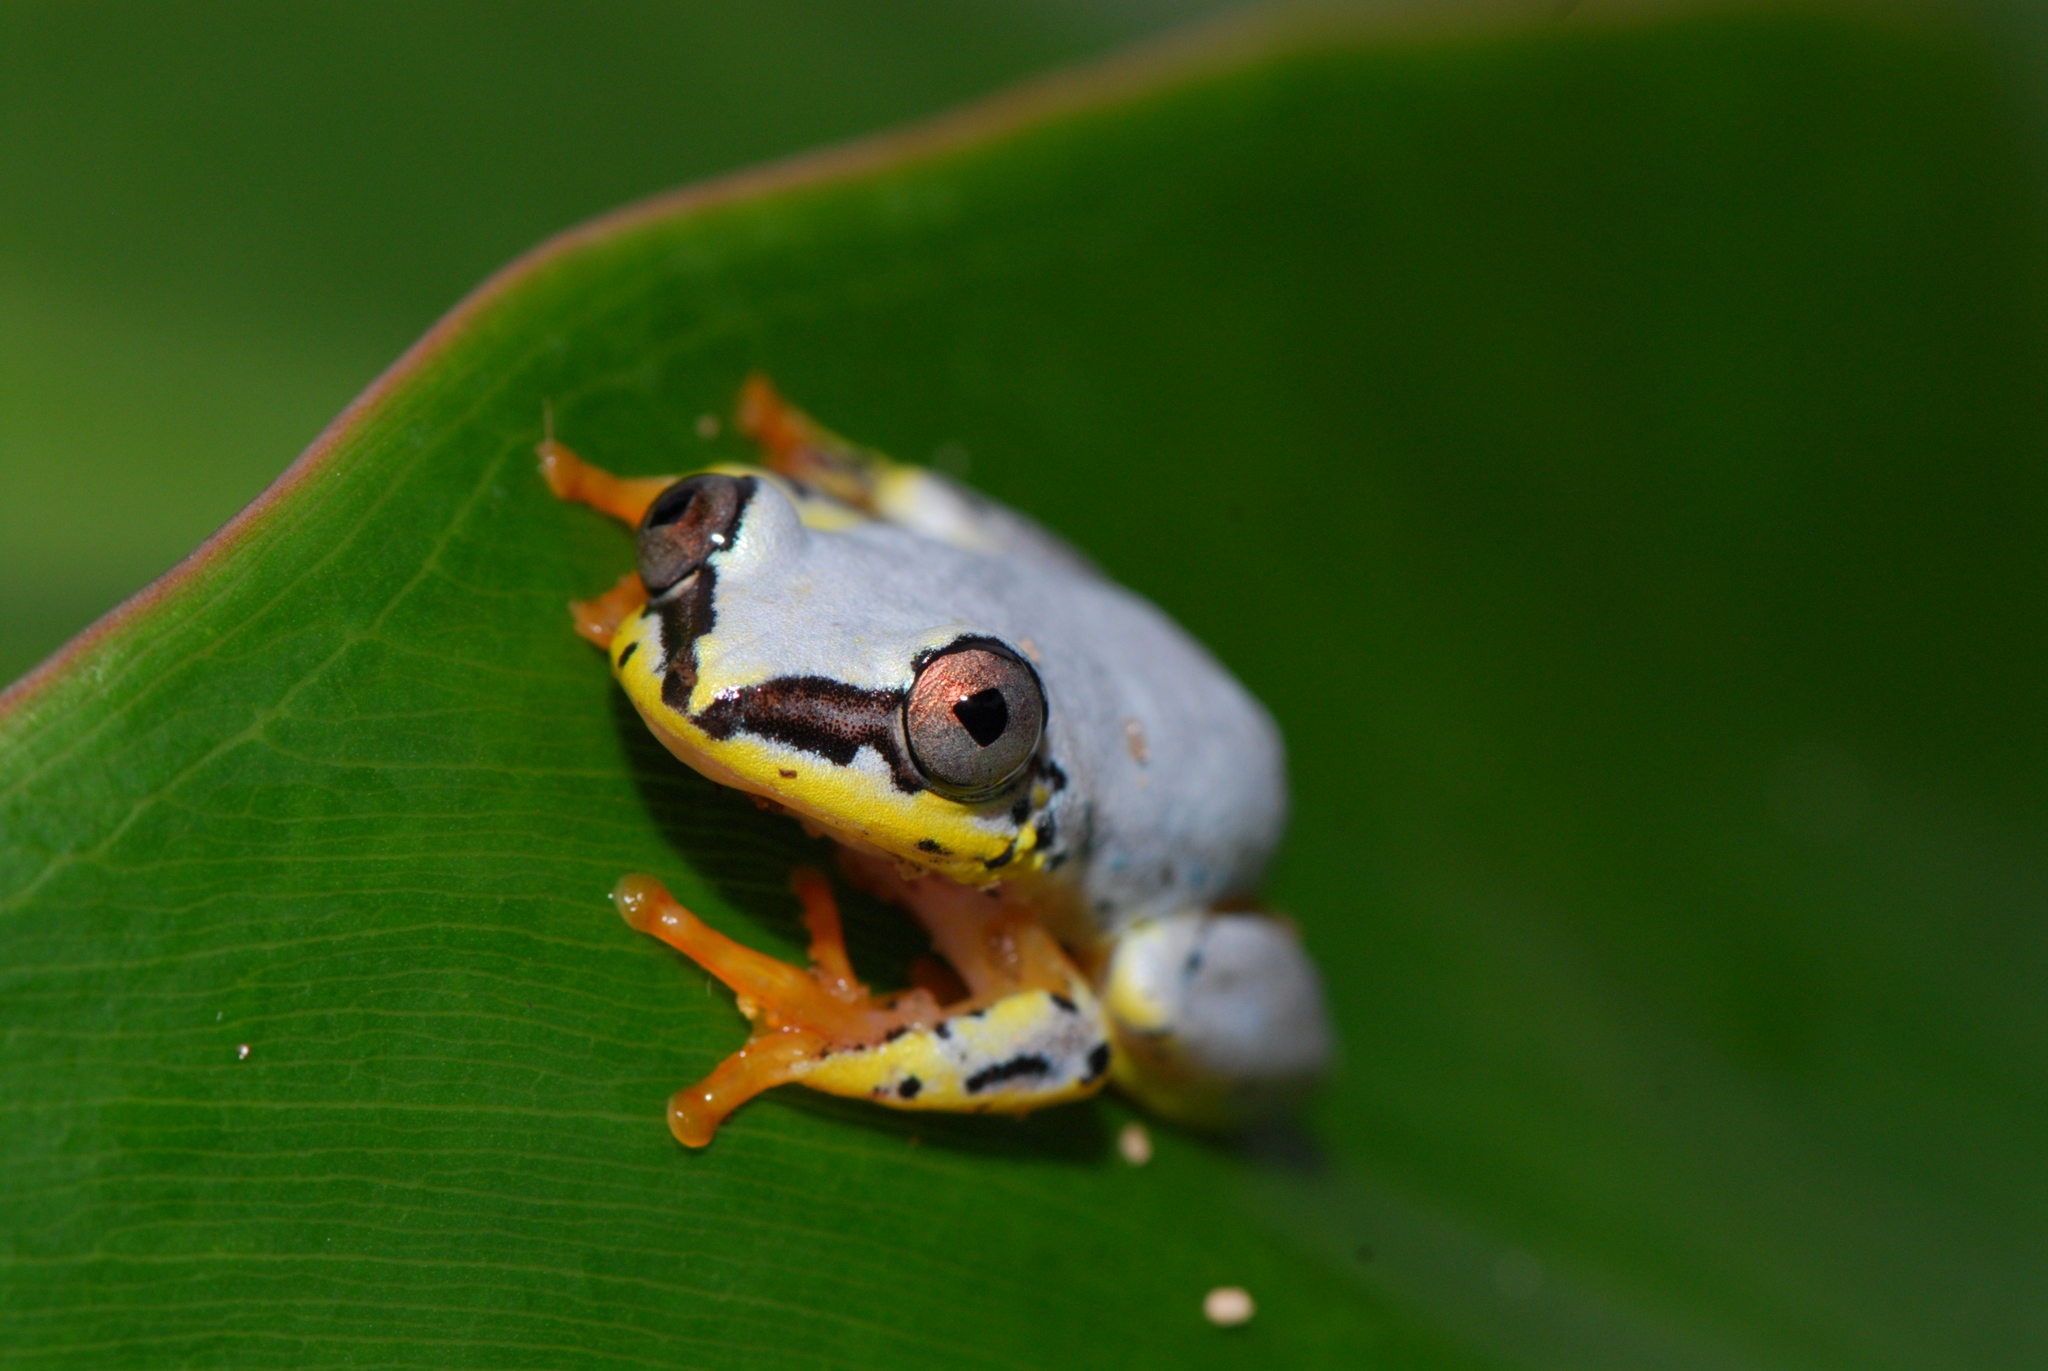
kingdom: Animalia
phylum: Chordata
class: Amphibia
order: Anura
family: Hyperoliidae
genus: Heterixalus
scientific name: Heterixalus punctatus
